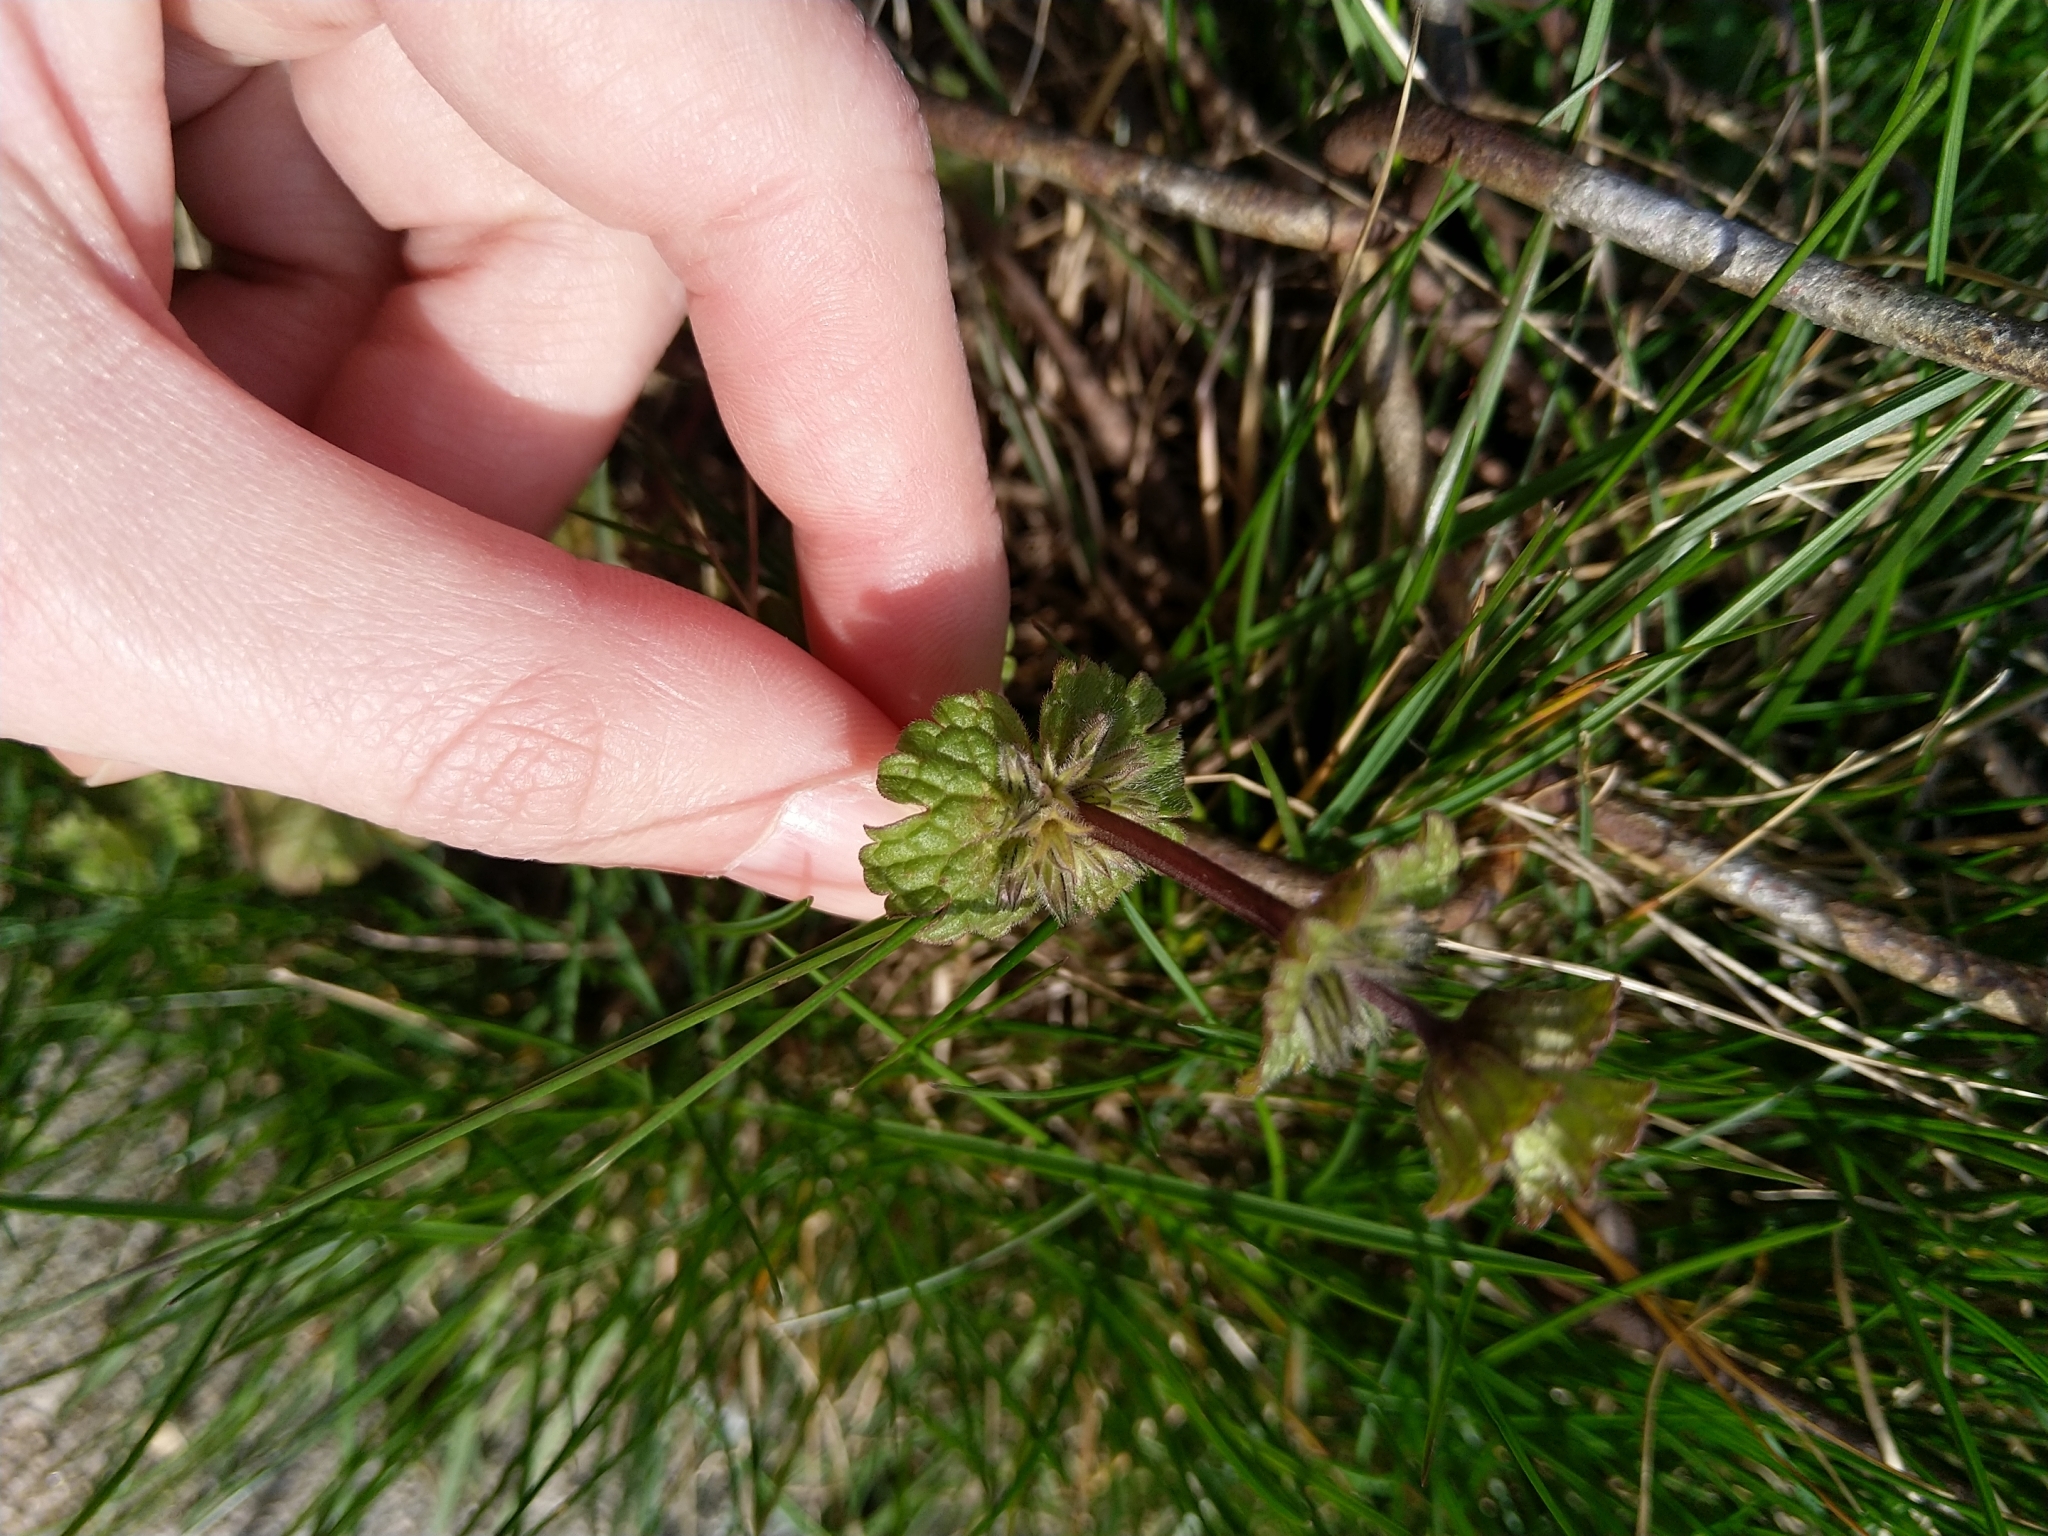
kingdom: Plantae
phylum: Tracheophyta
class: Magnoliopsida
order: Lamiales
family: Lamiaceae
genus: Lamium
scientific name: Lamium amplexicaule
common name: Henbit dead-nettle
